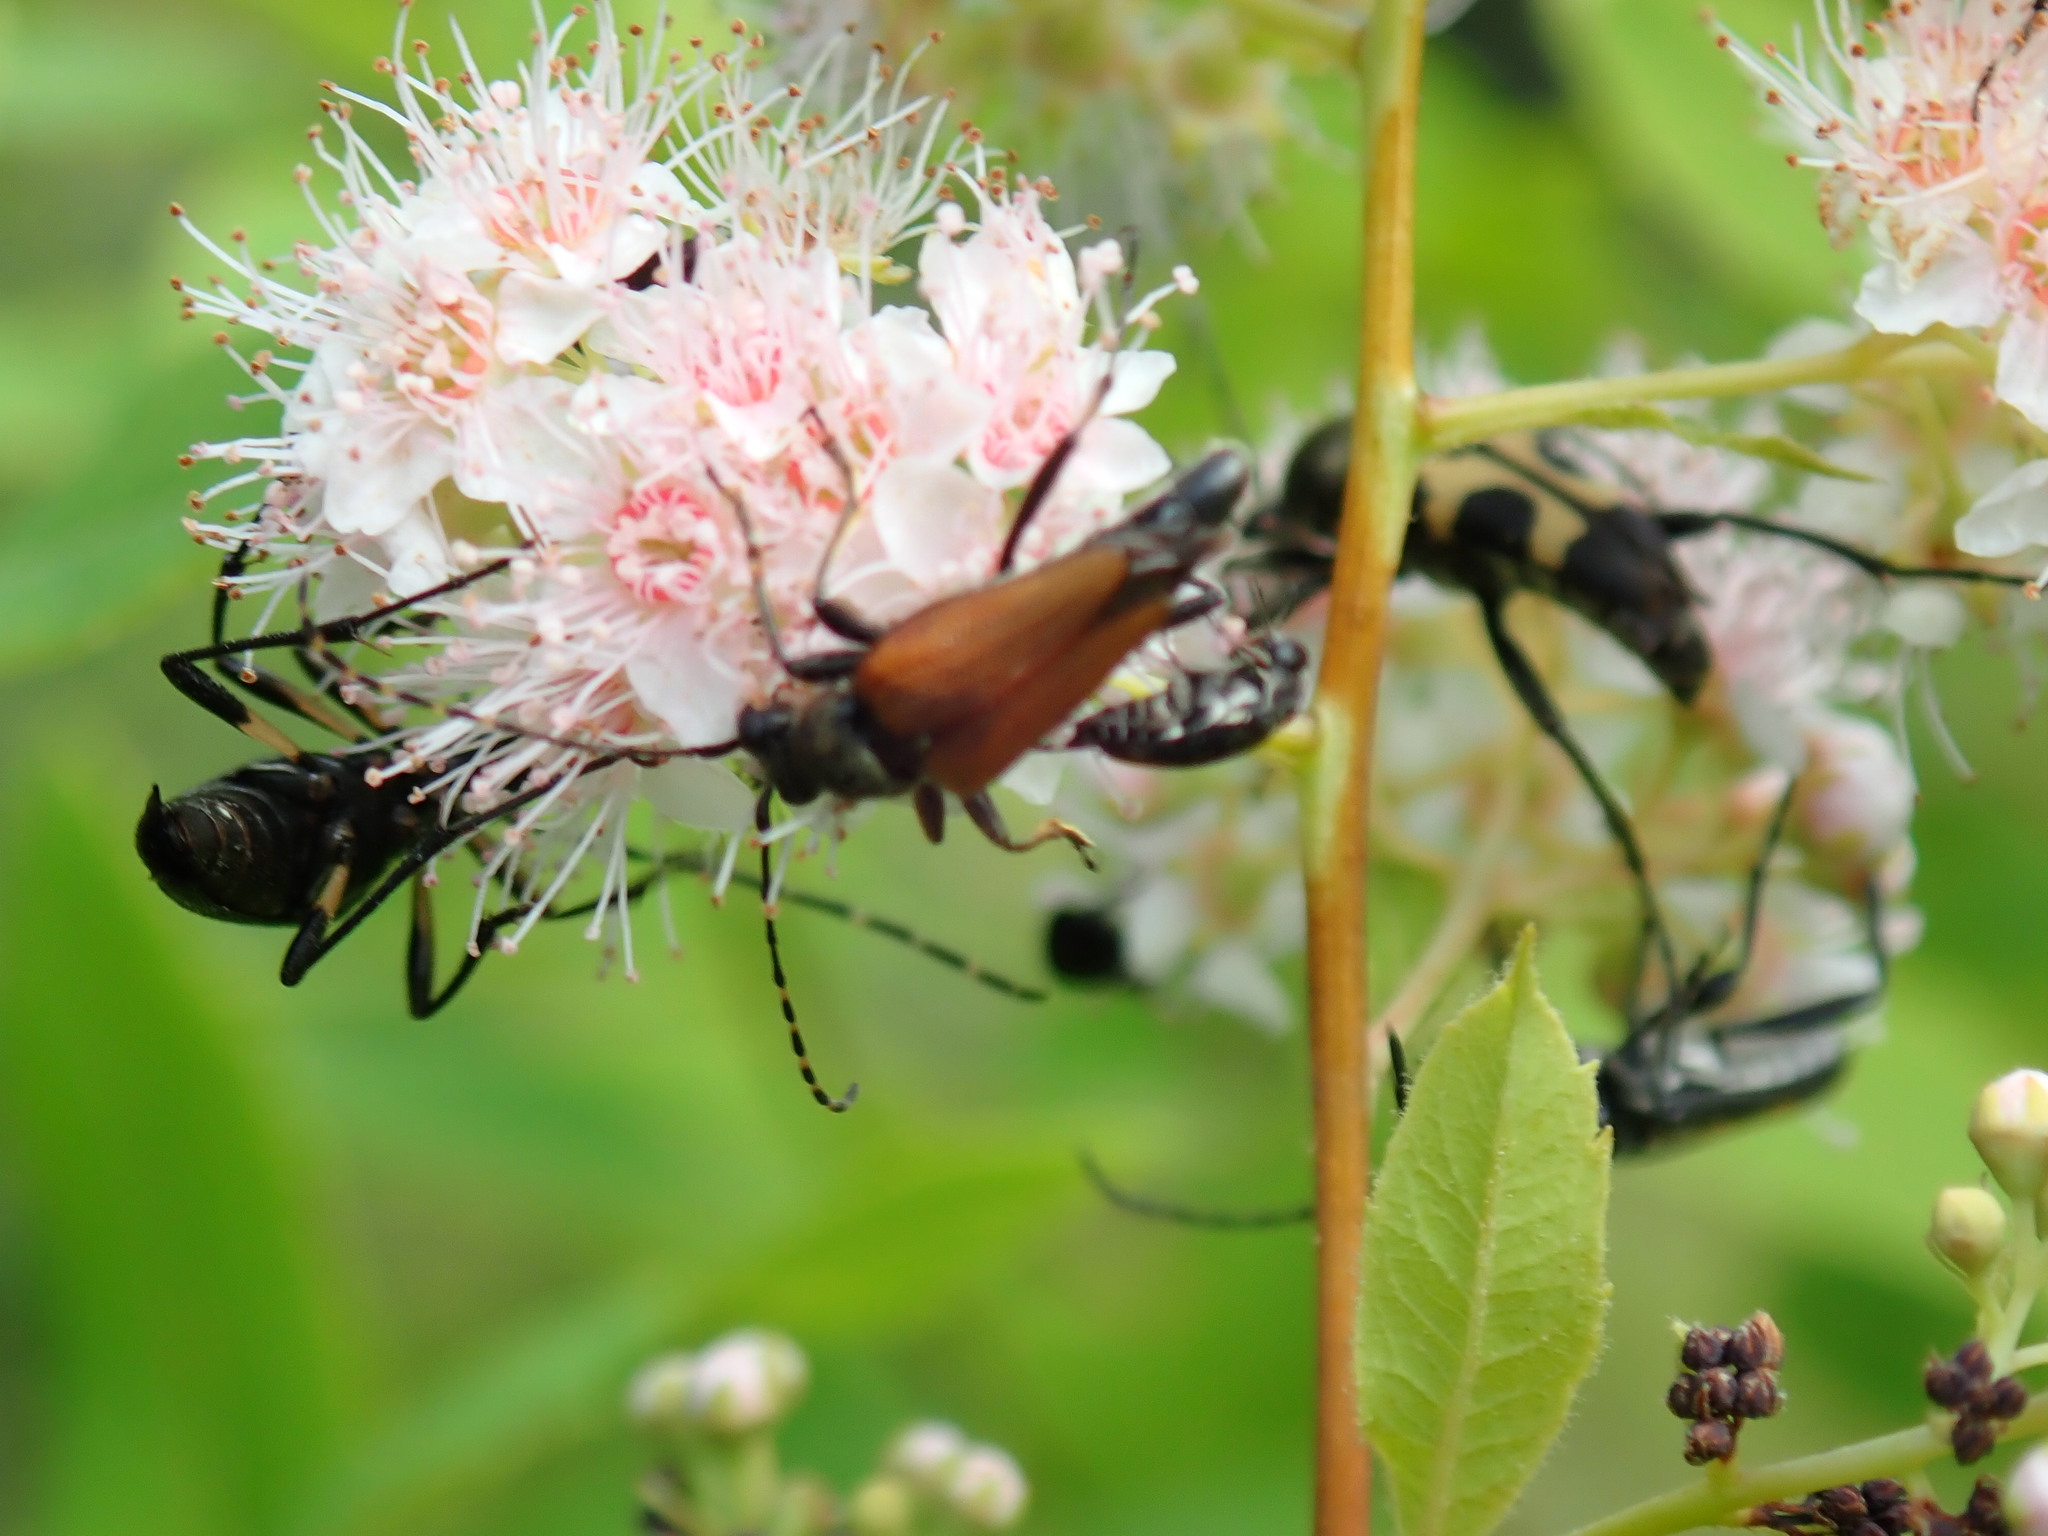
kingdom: Animalia
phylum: Arthropoda
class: Insecta
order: Coleoptera
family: Cerambycidae
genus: Brachyleptura
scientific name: Brachyleptura rubrica
